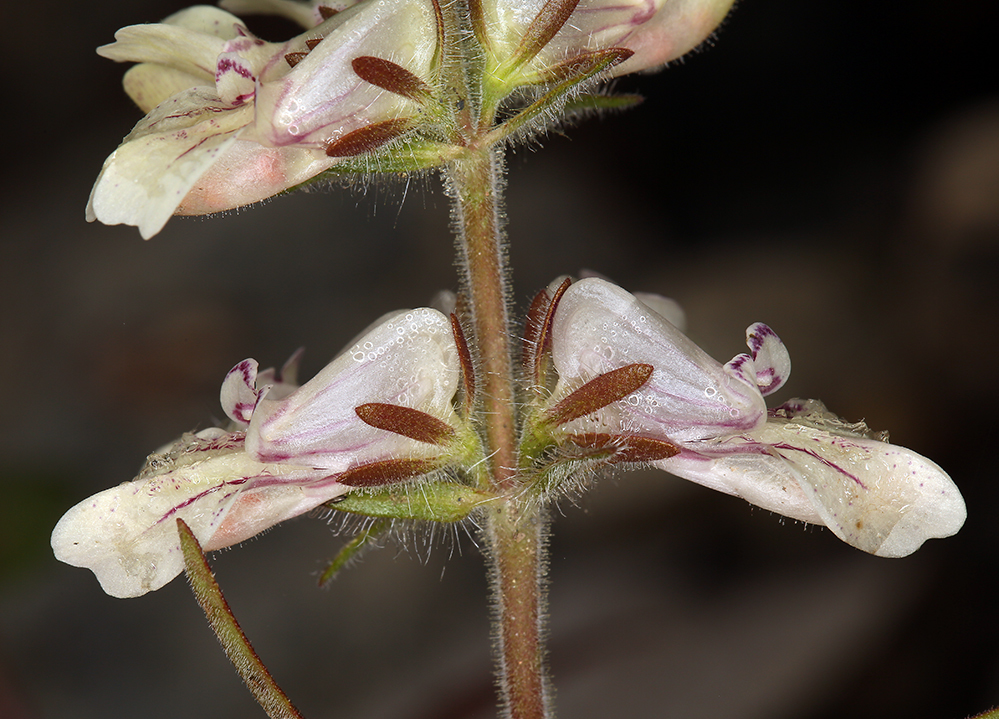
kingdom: Plantae
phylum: Tracheophyta
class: Magnoliopsida
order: Lamiales
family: Plantaginaceae
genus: Collinsia
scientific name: Collinsia tinctoria
